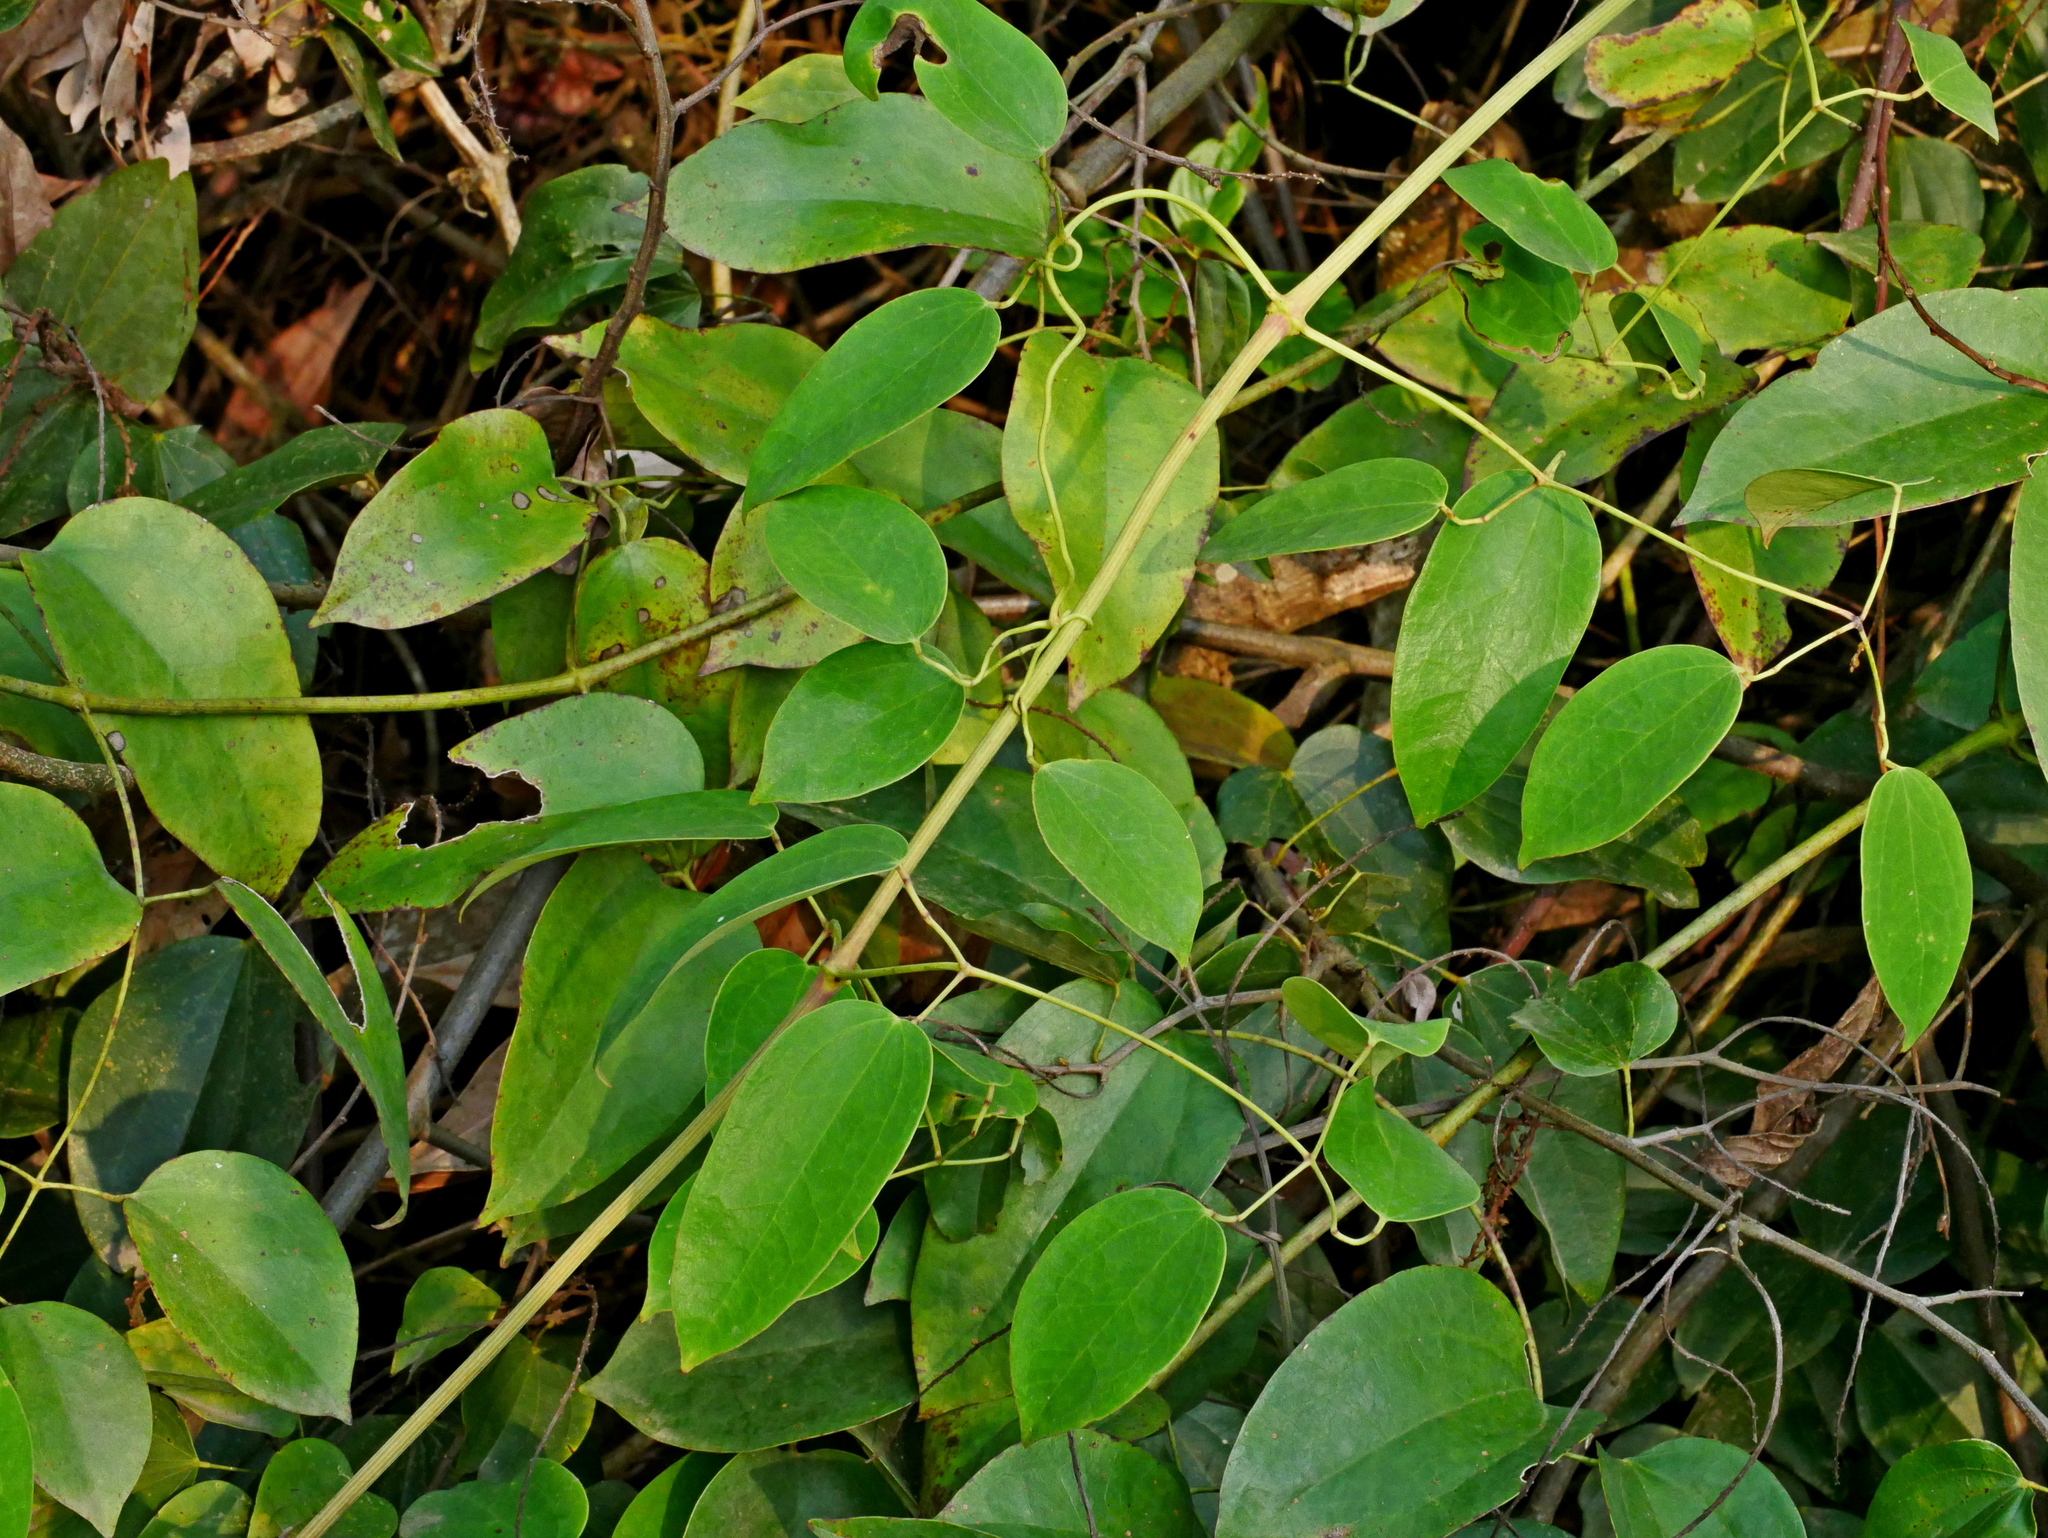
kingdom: Plantae
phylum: Tracheophyta
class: Magnoliopsida
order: Lamiales
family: Oleaceae
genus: Jasminum
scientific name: Jasminum lanceolaria
